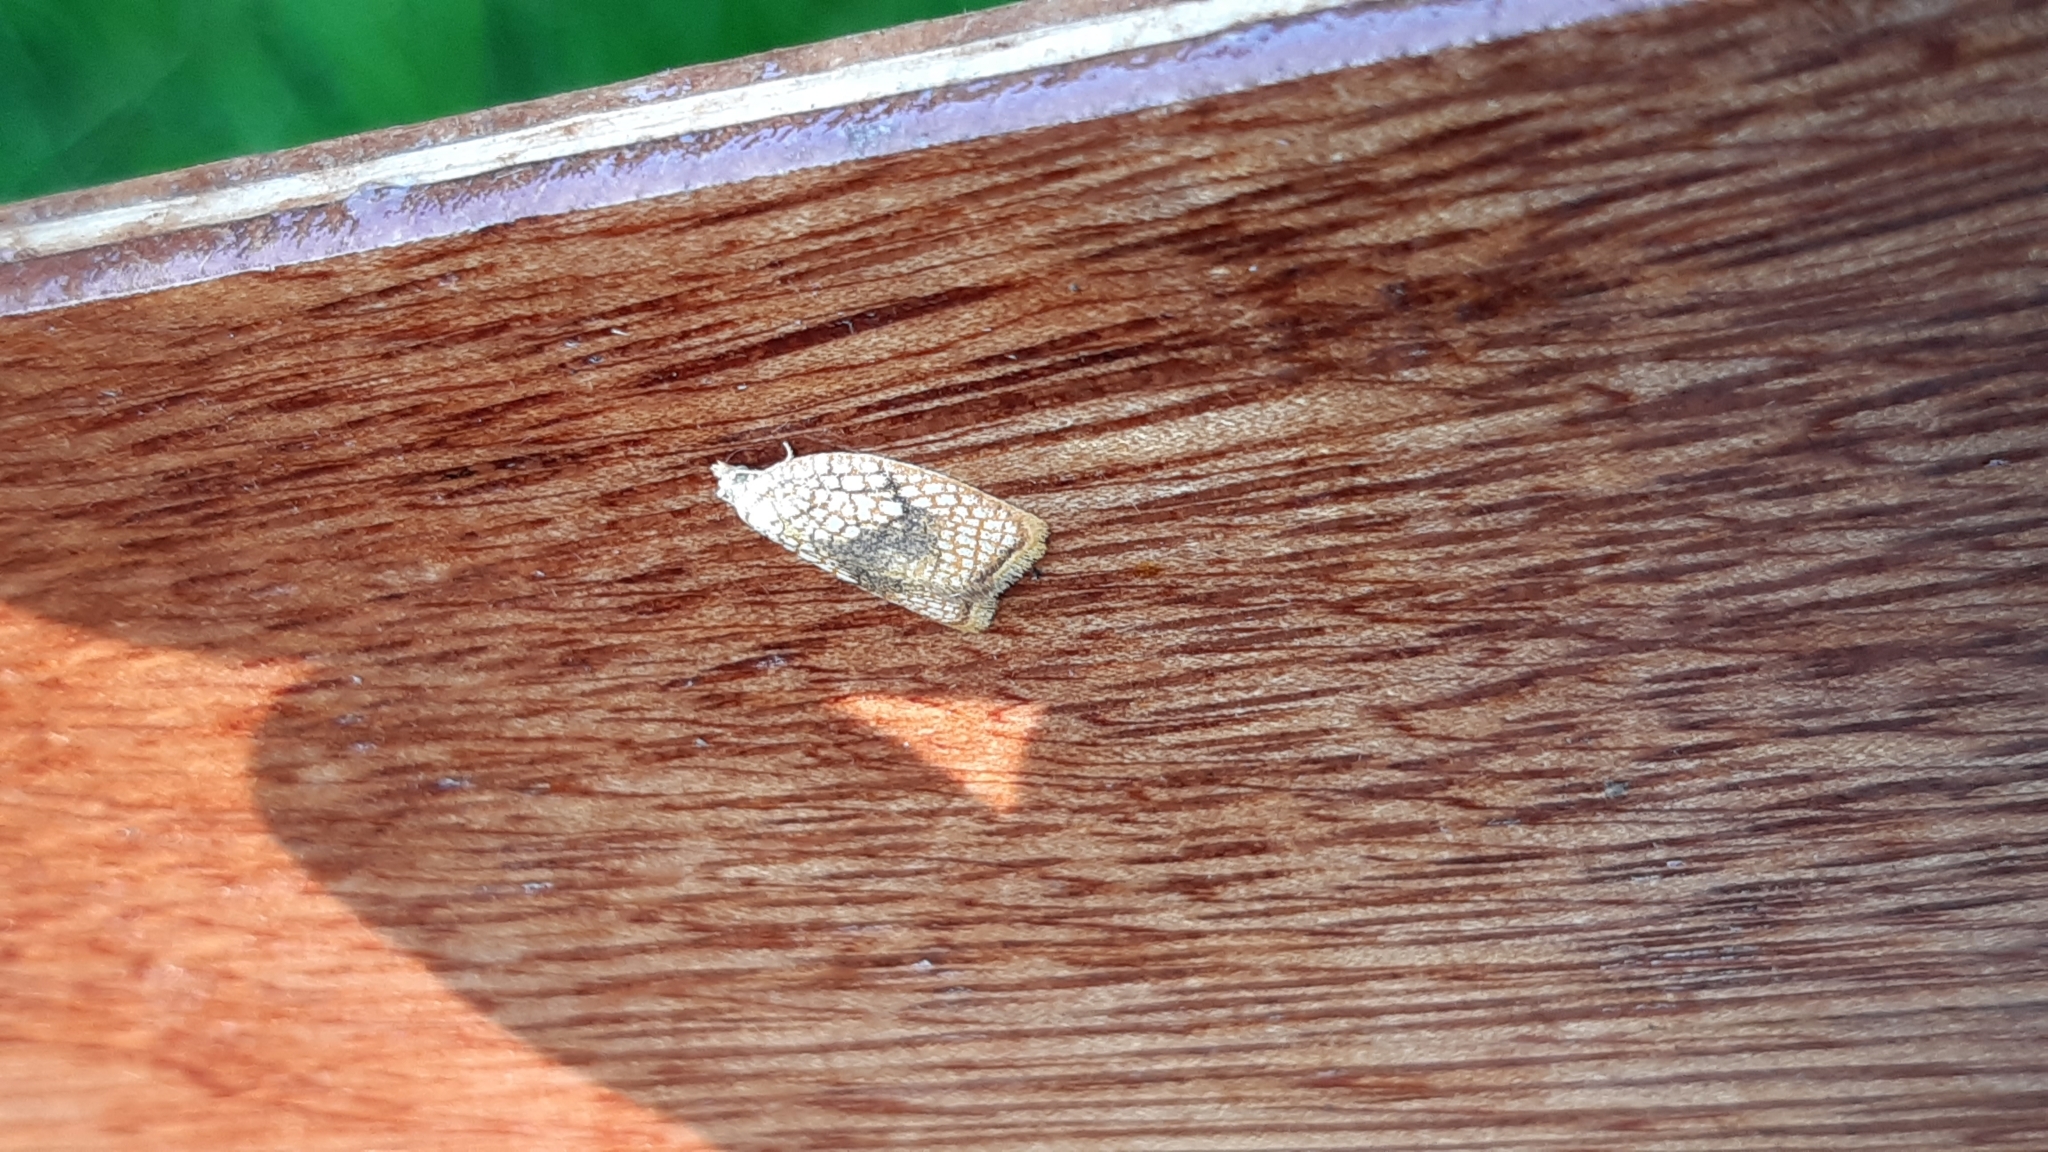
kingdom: Animalia
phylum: Arthropoda
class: Insecta
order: Lepidoptera
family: Tortricidae
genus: Acleris
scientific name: Acleris forsskaleana
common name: Maple button
